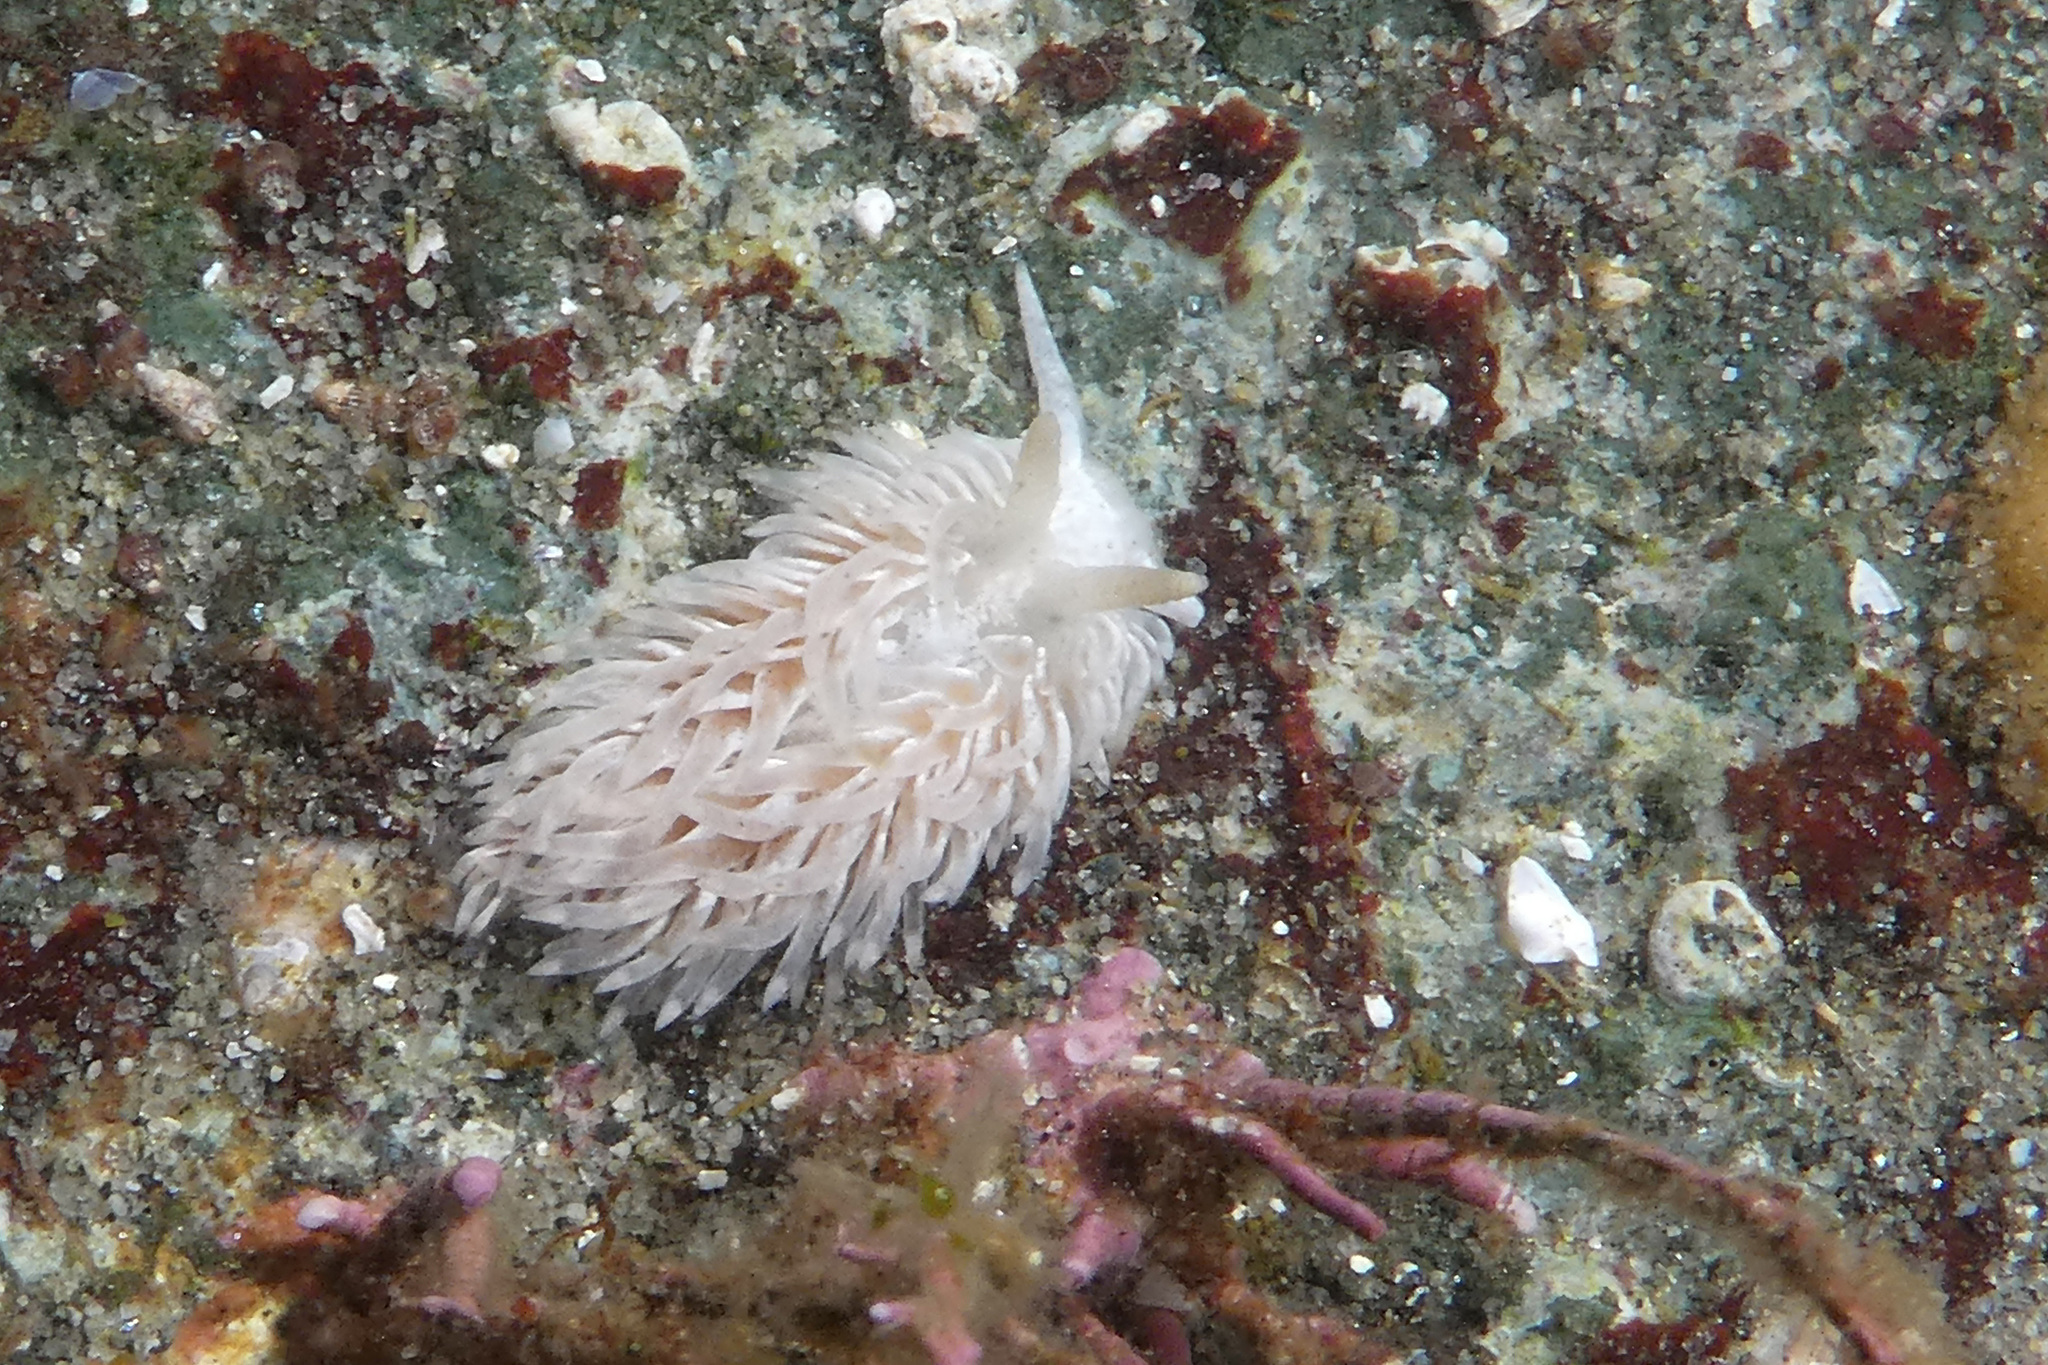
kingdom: Animalia
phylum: Mollusca
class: Gastropoda
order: Nudibranchia
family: Aeolidiidae
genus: Aeolidia
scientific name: Aeolidia loui
